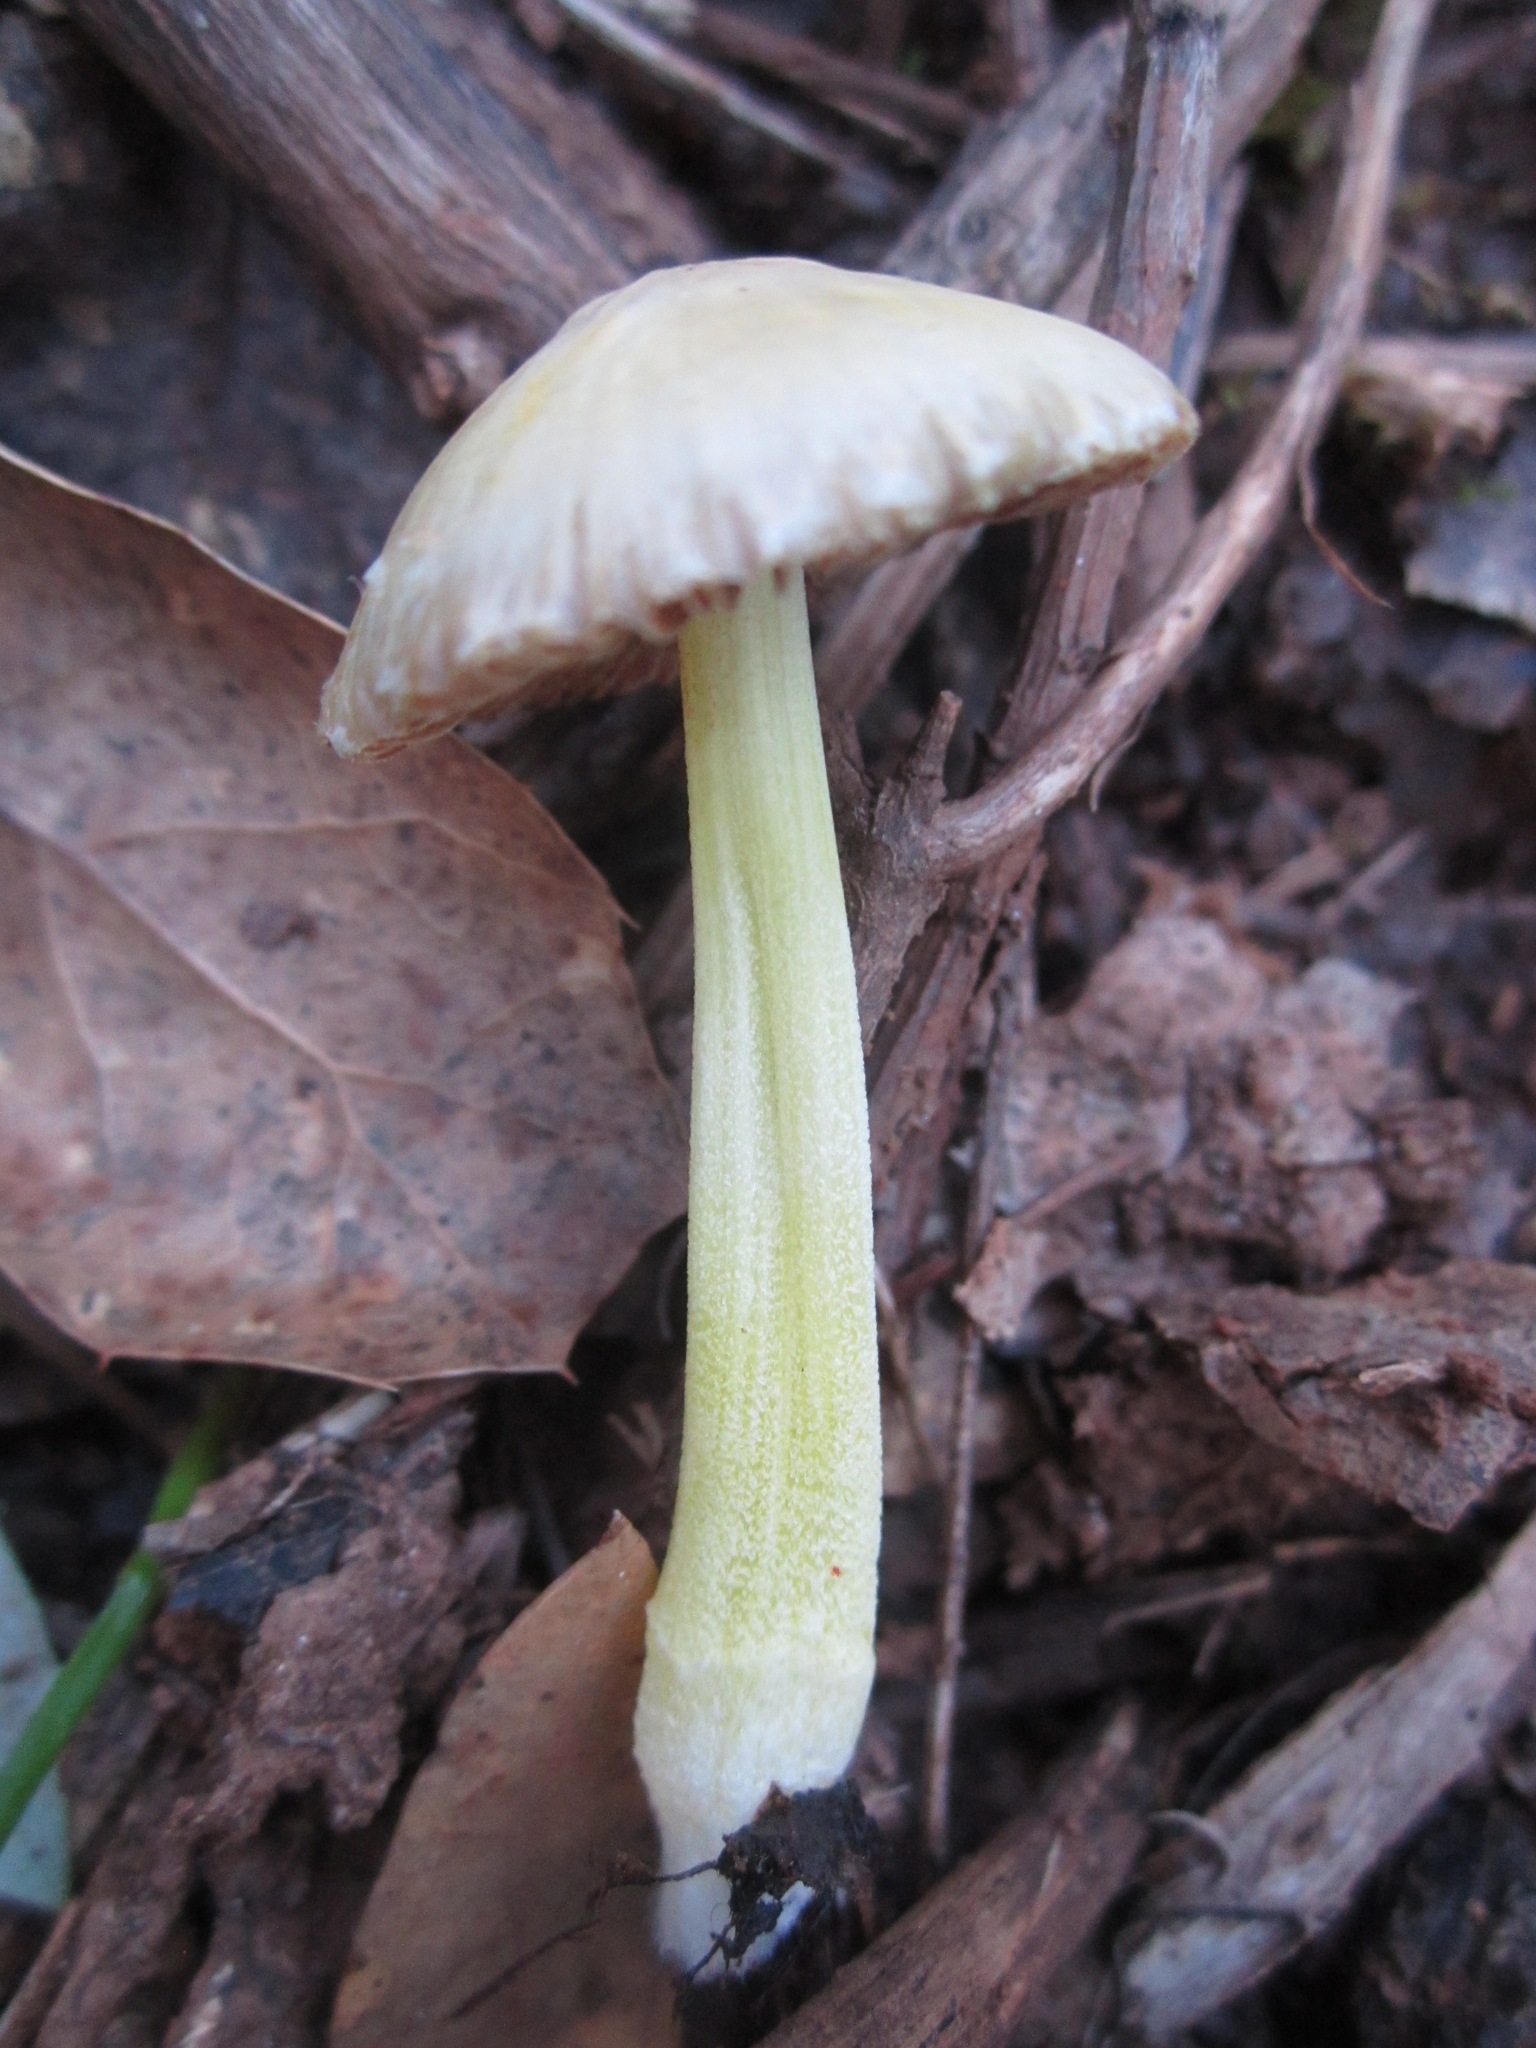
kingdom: Fungi
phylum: Basidiomycota
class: Agaricomycetes
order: Agaricales
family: Bolbitiaceae
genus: Bolbitius
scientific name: Bolbitius titubans
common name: Yellow fieldcap
